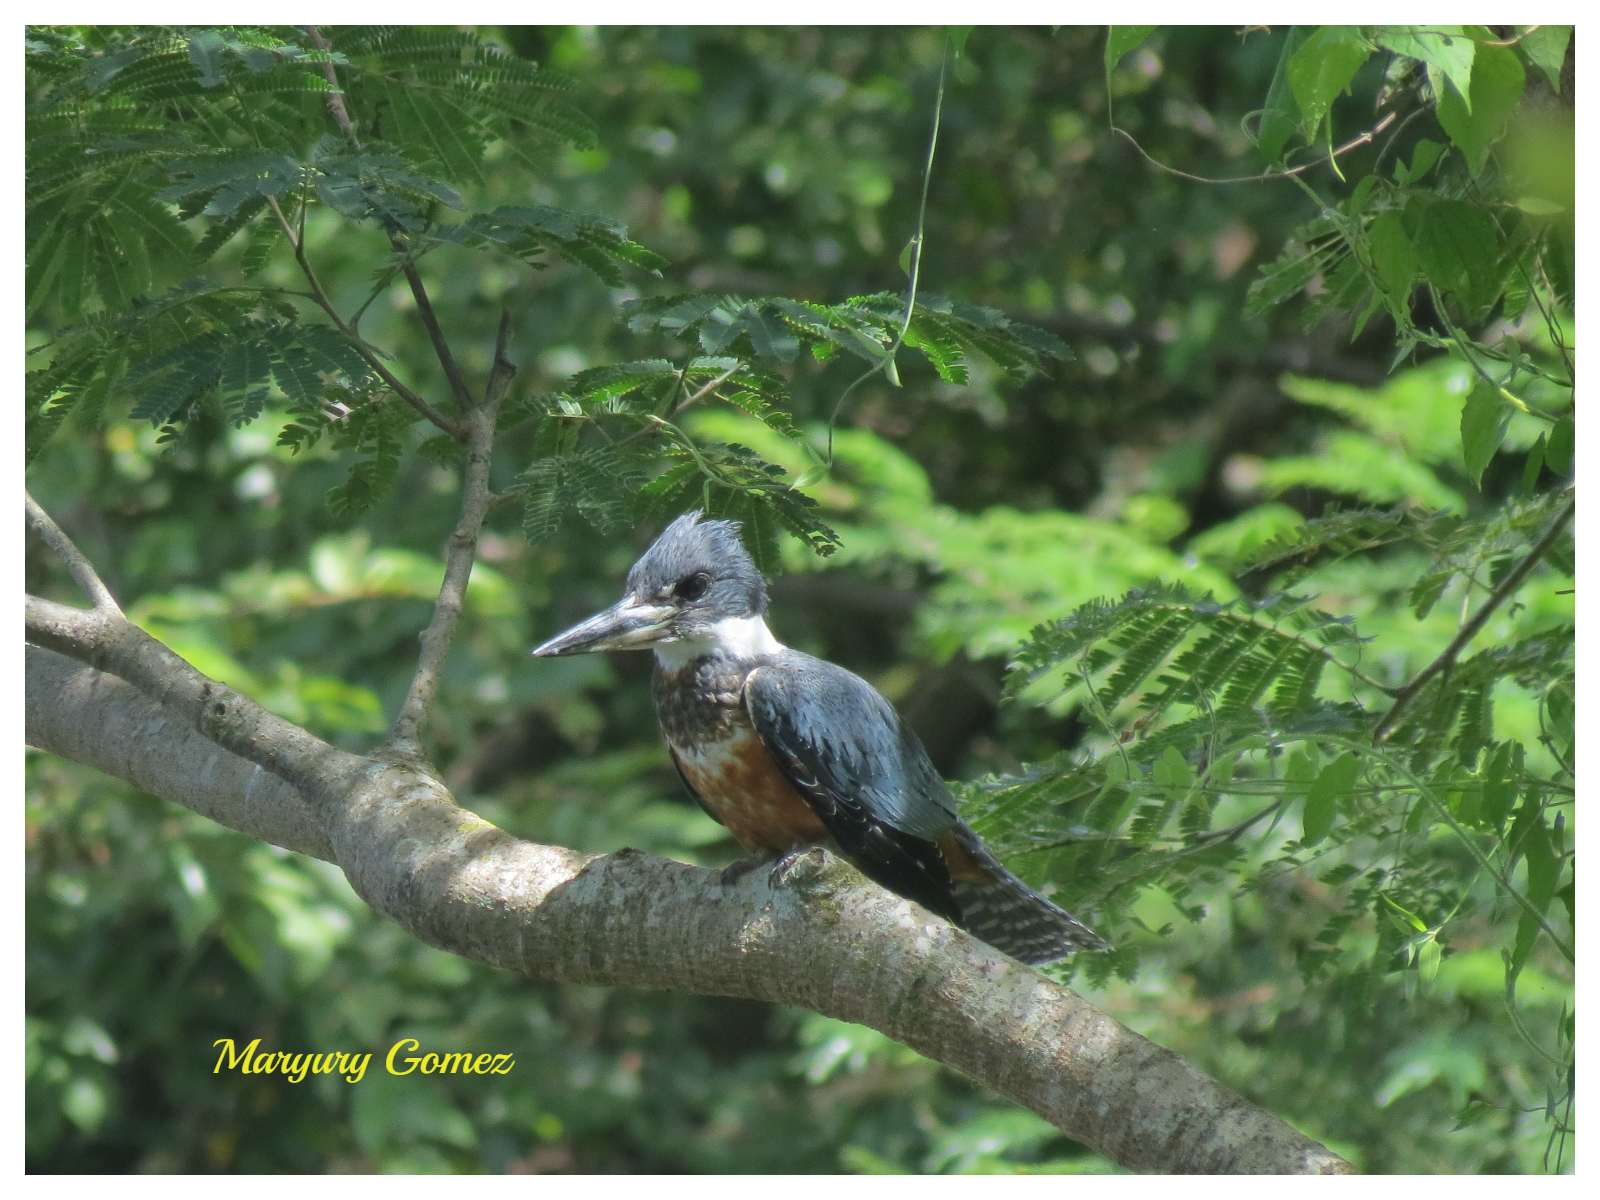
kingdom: Animalia
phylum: Chordata
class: Aves
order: Coraciiformes
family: Alcedinidae
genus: Megaceryle
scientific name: Megaceryle torquata
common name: Ringed kingfisher
